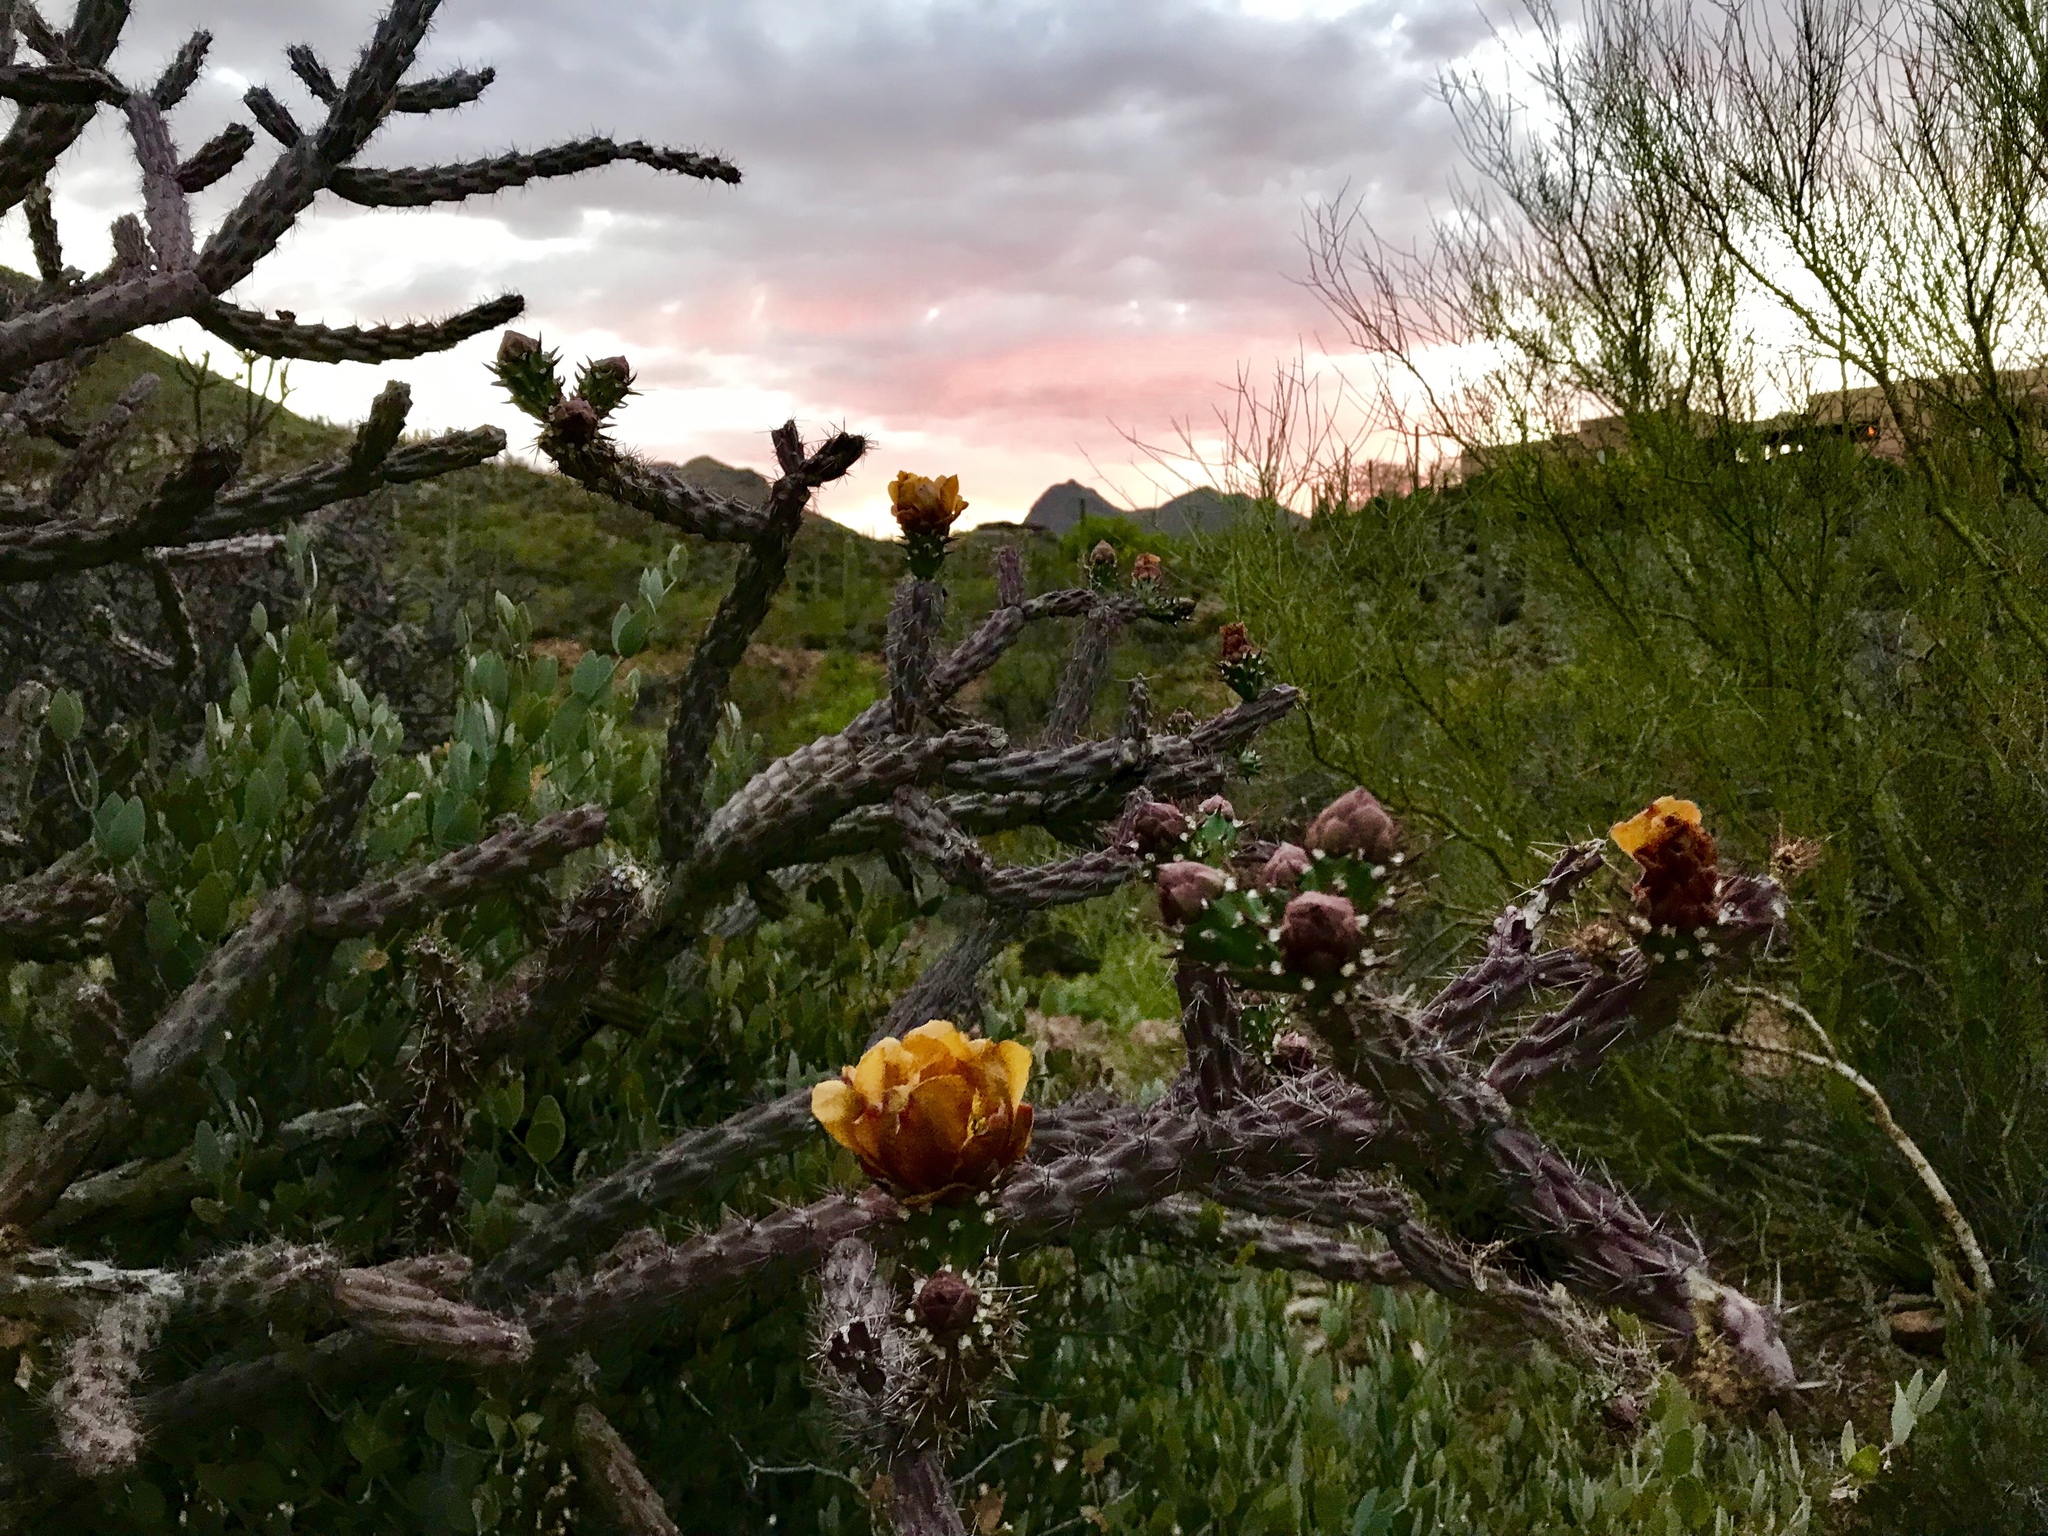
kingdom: Plantae
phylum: Tracheophyta
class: Magnoliopsida
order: Caryophyllales
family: Cactaceae
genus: Cylindropuntia
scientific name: Cylindropuntia thurberi
